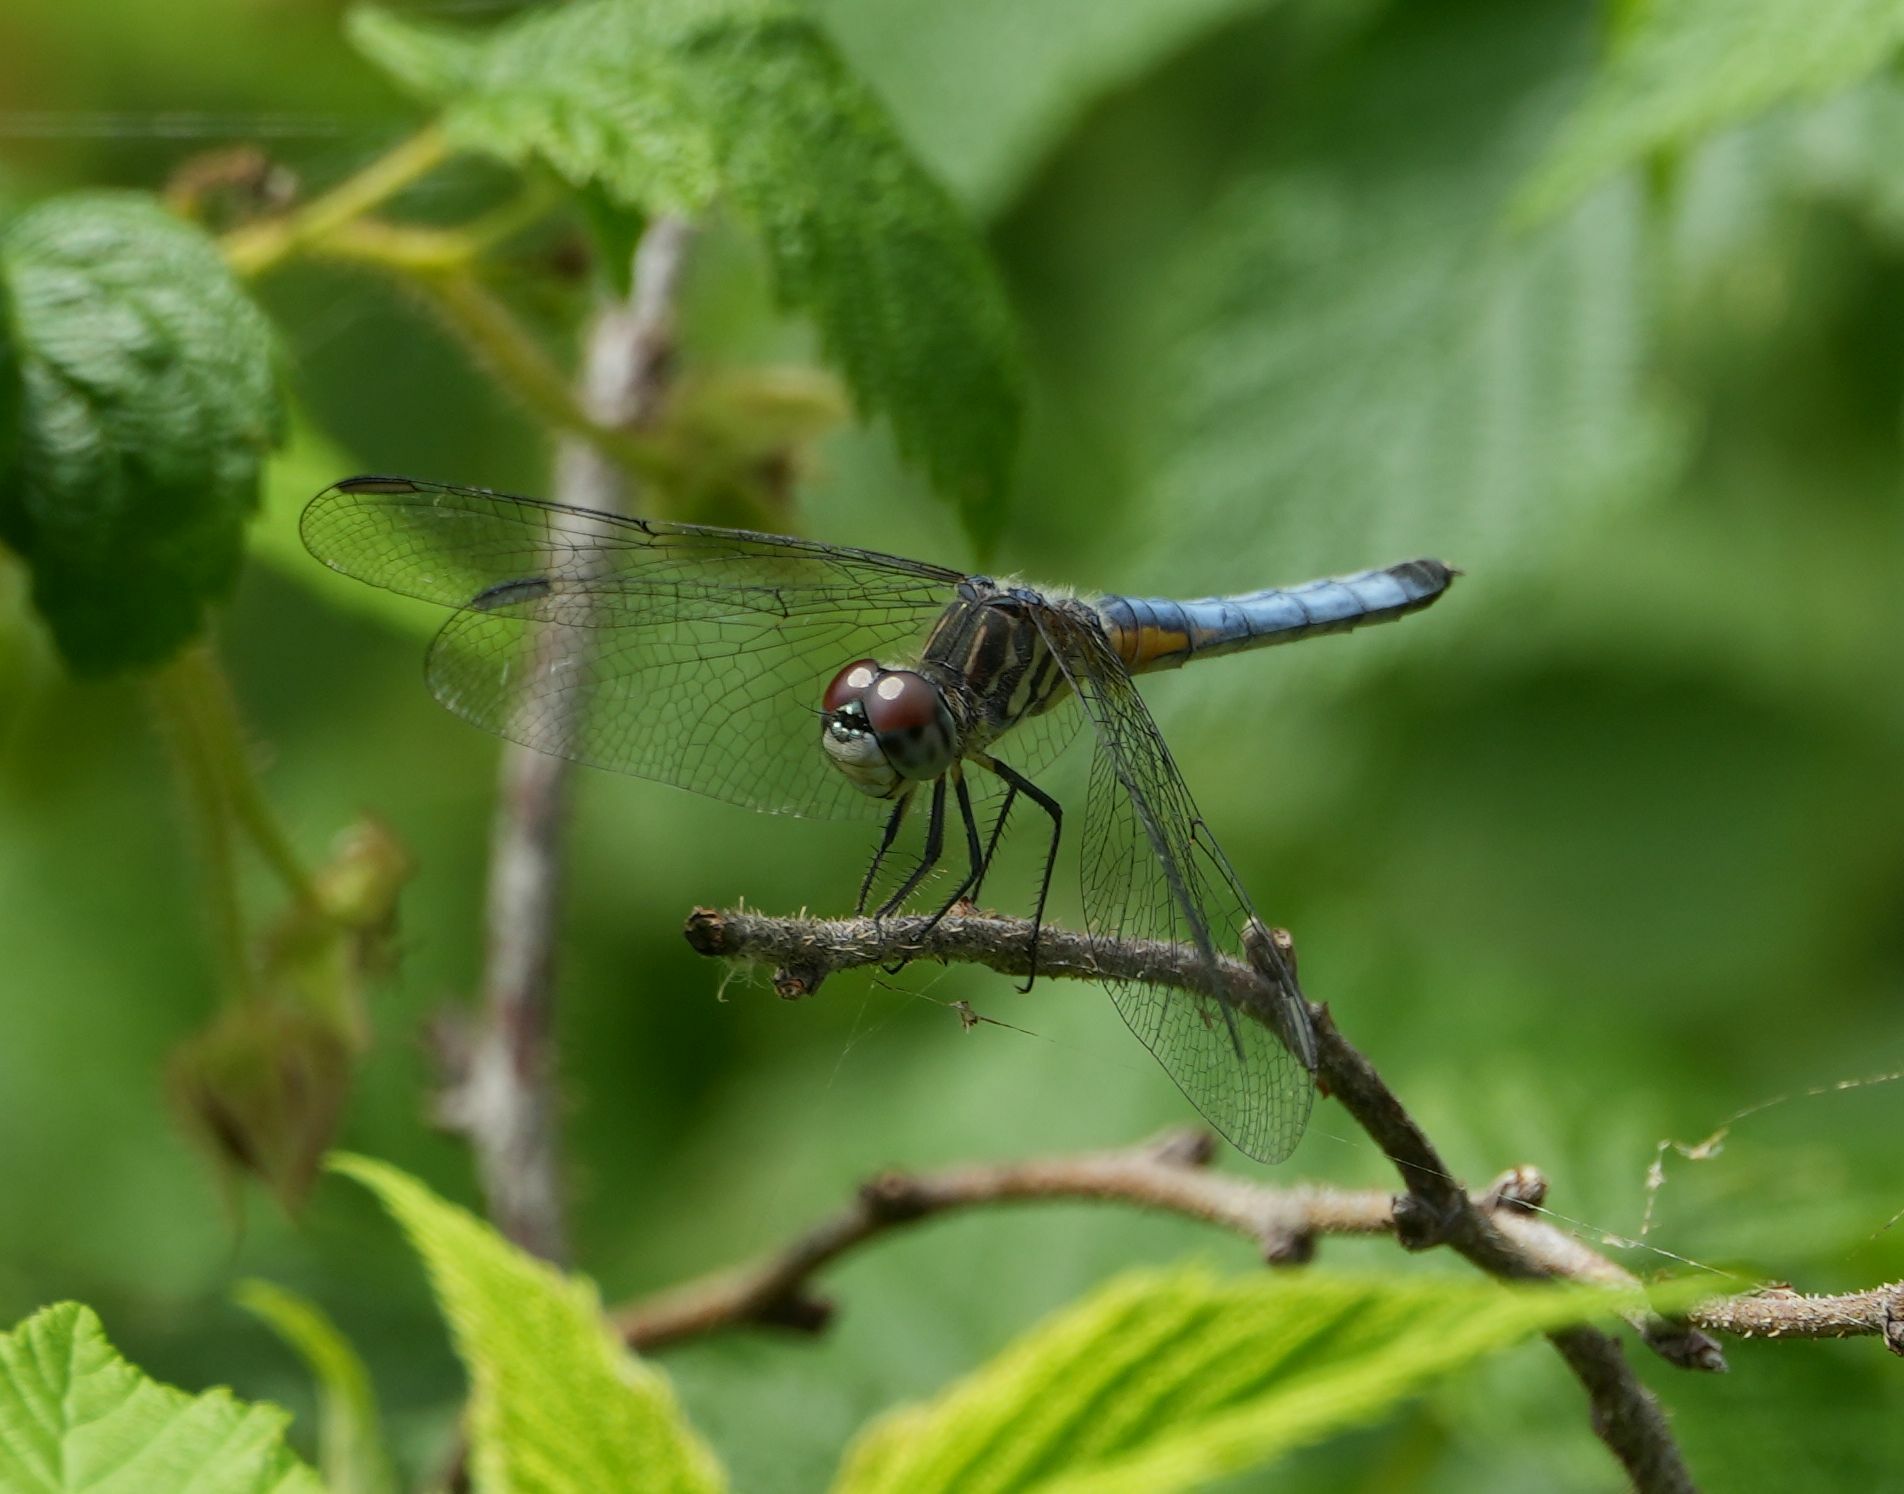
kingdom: Animalia
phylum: Arthropoda
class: Insecta
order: Odonata
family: Libellulidae
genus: Pachydiplax
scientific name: Pachydiplax longipennis
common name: Blue dasher
